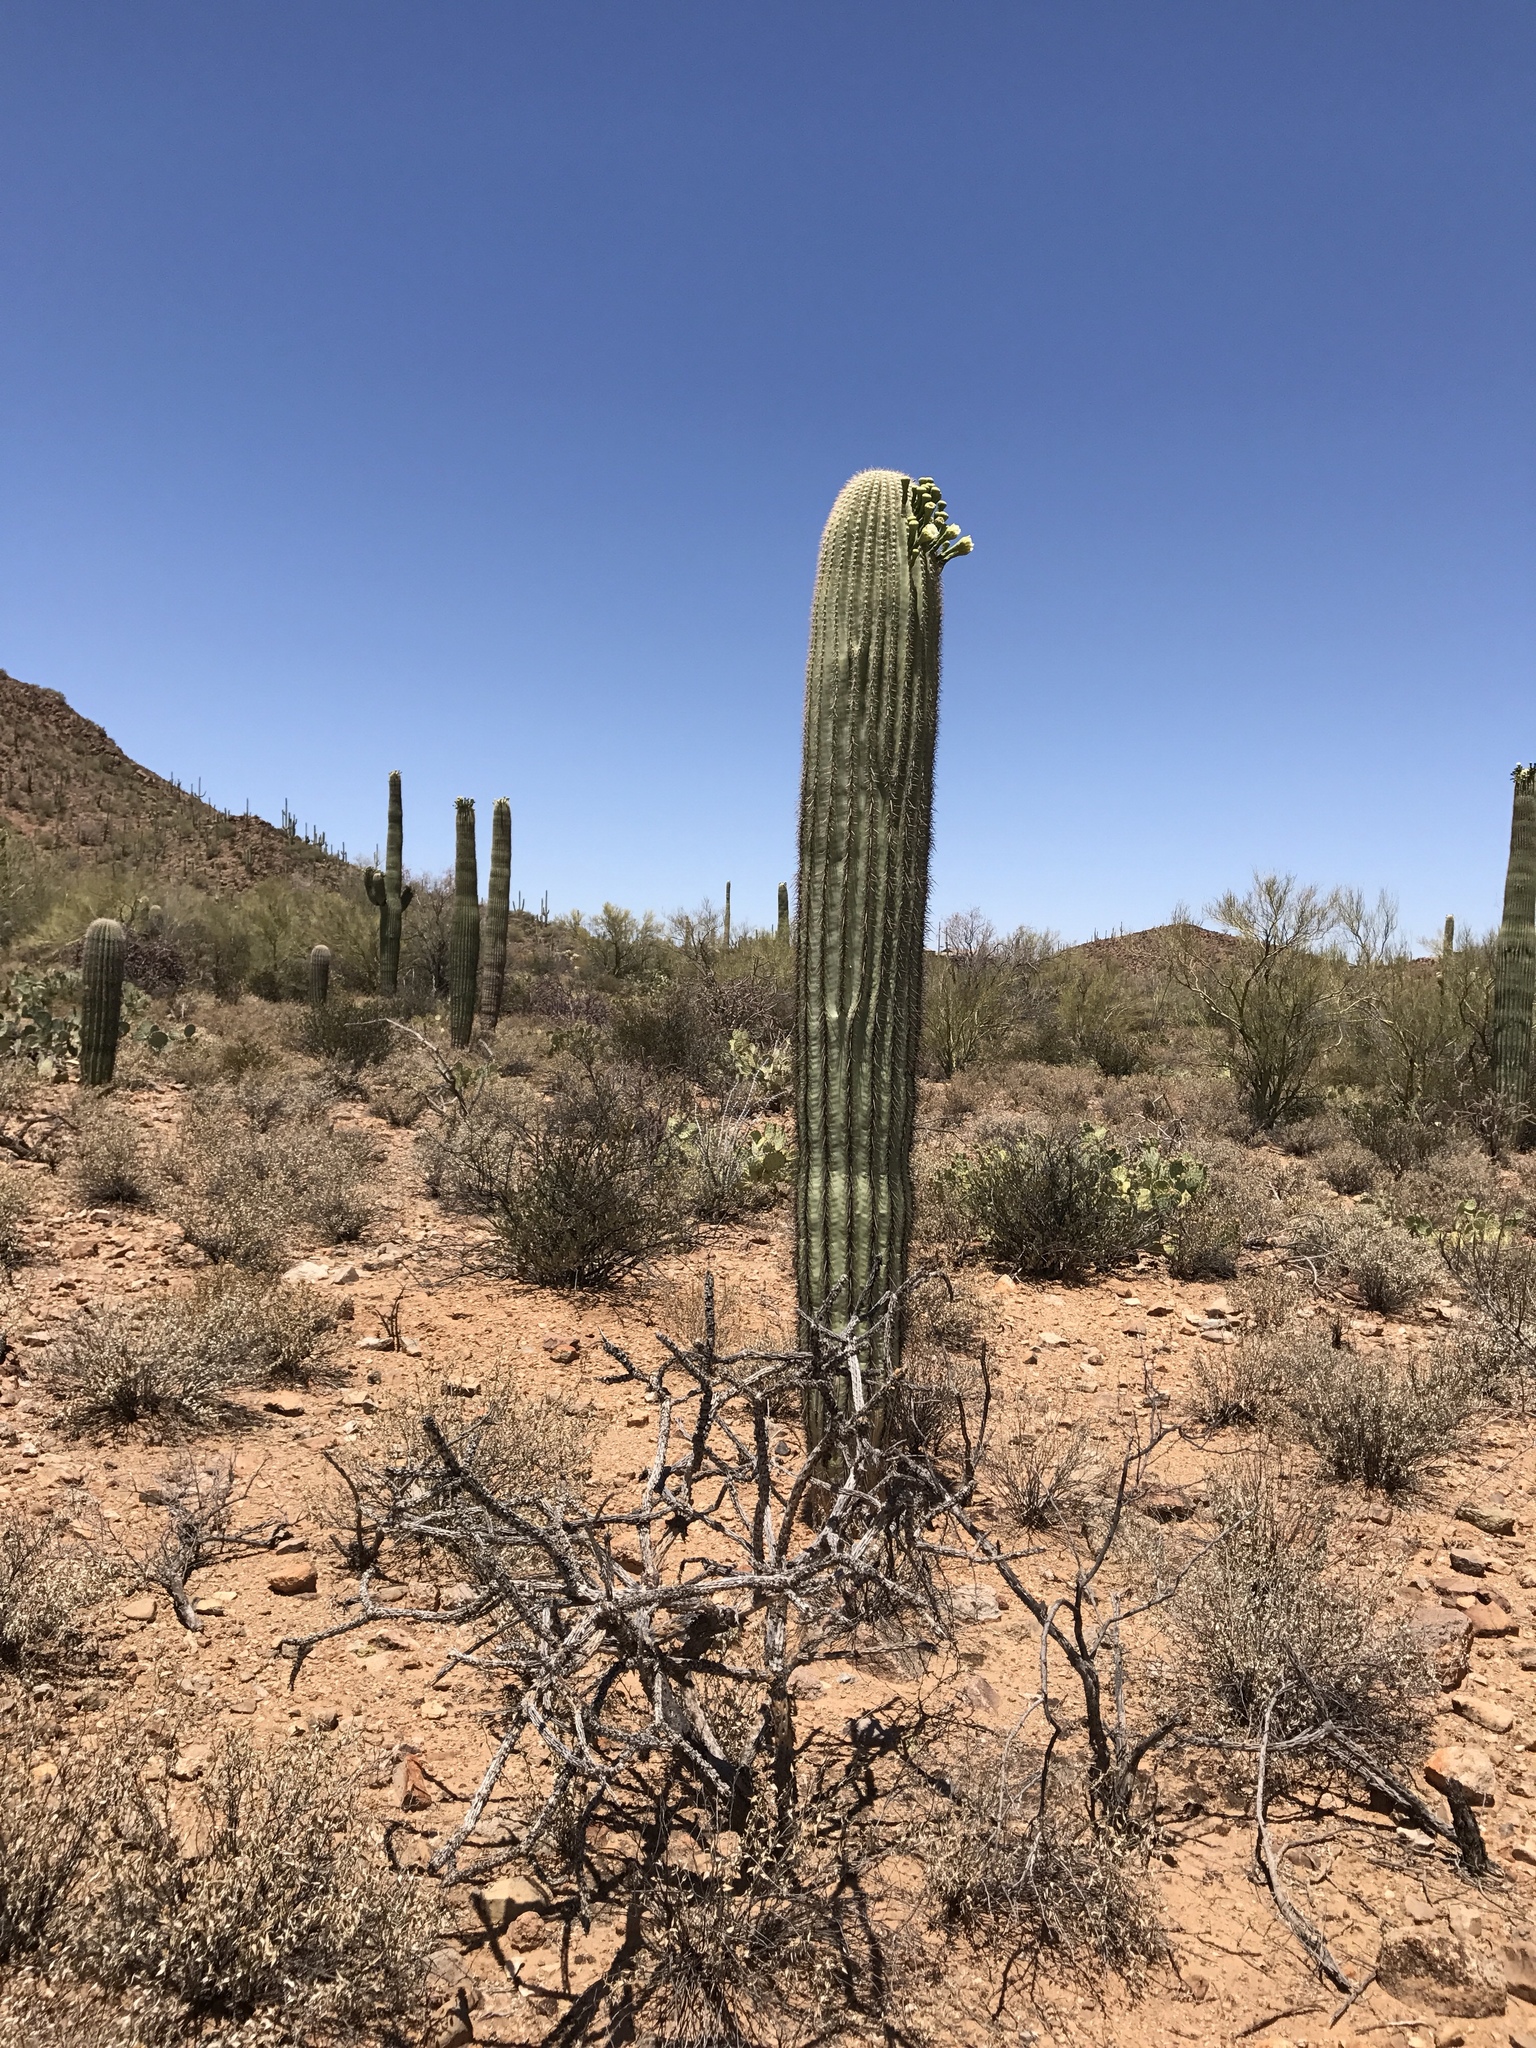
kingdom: Plantae
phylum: Tracheophyta
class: Magnoliopsida
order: Caryophyllales
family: Cactaceae
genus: Carnegiea
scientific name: Carnegiea gigantea
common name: Saguaro
